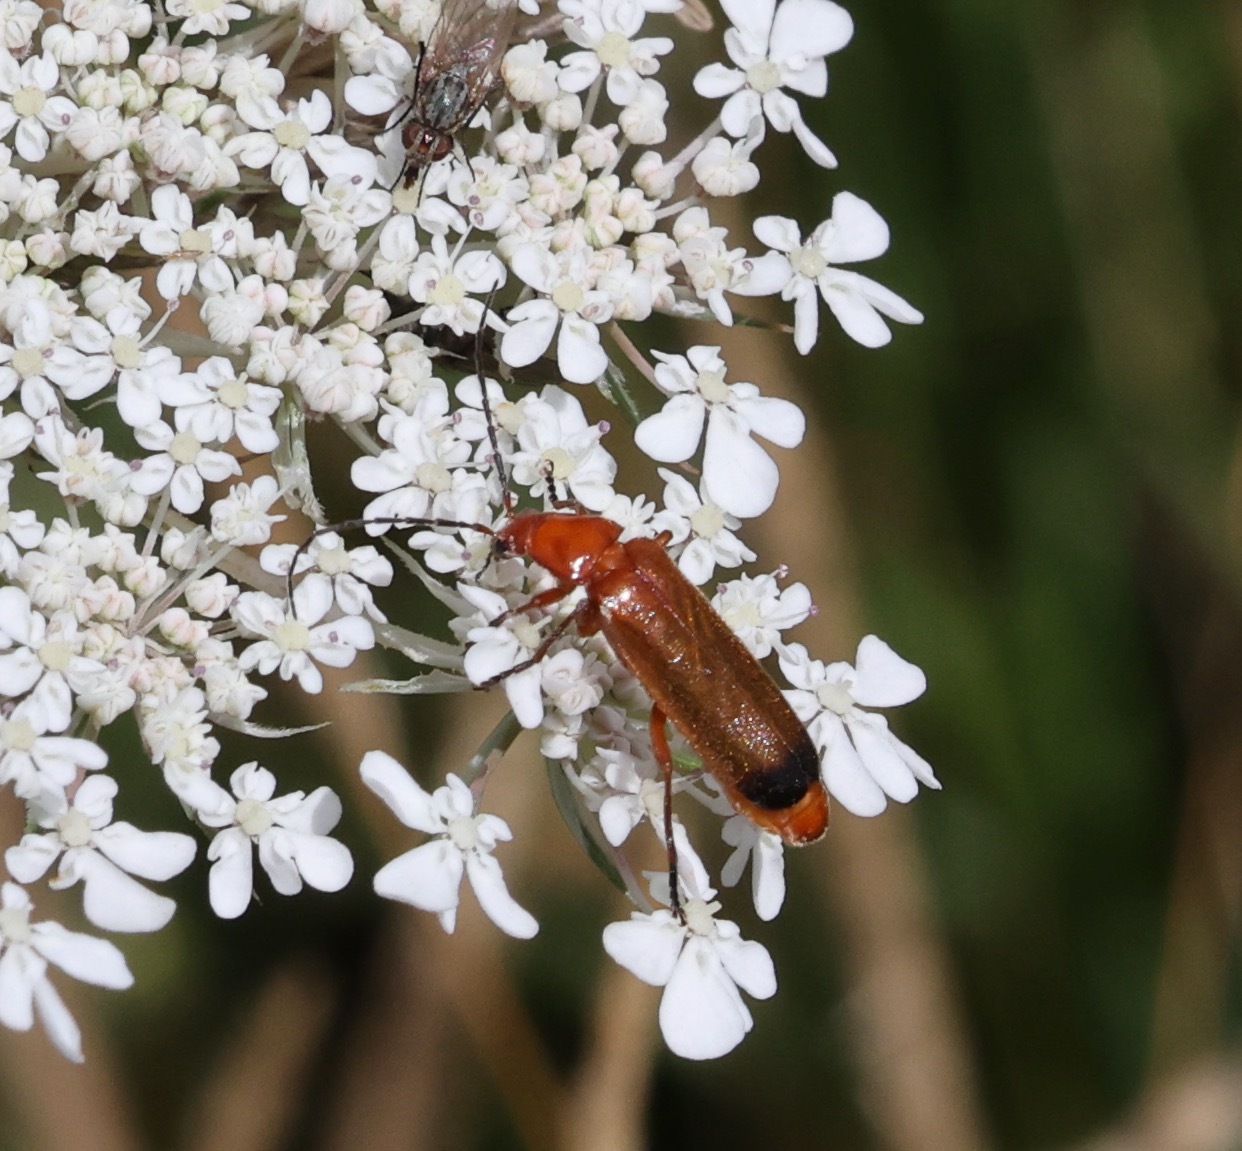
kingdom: Animalia
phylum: Arthropoda
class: Insecta
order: Coleoptera
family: Cantharidae
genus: Rhagonycha
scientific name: Rhagonycha fulva
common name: Common red soldier beetle
